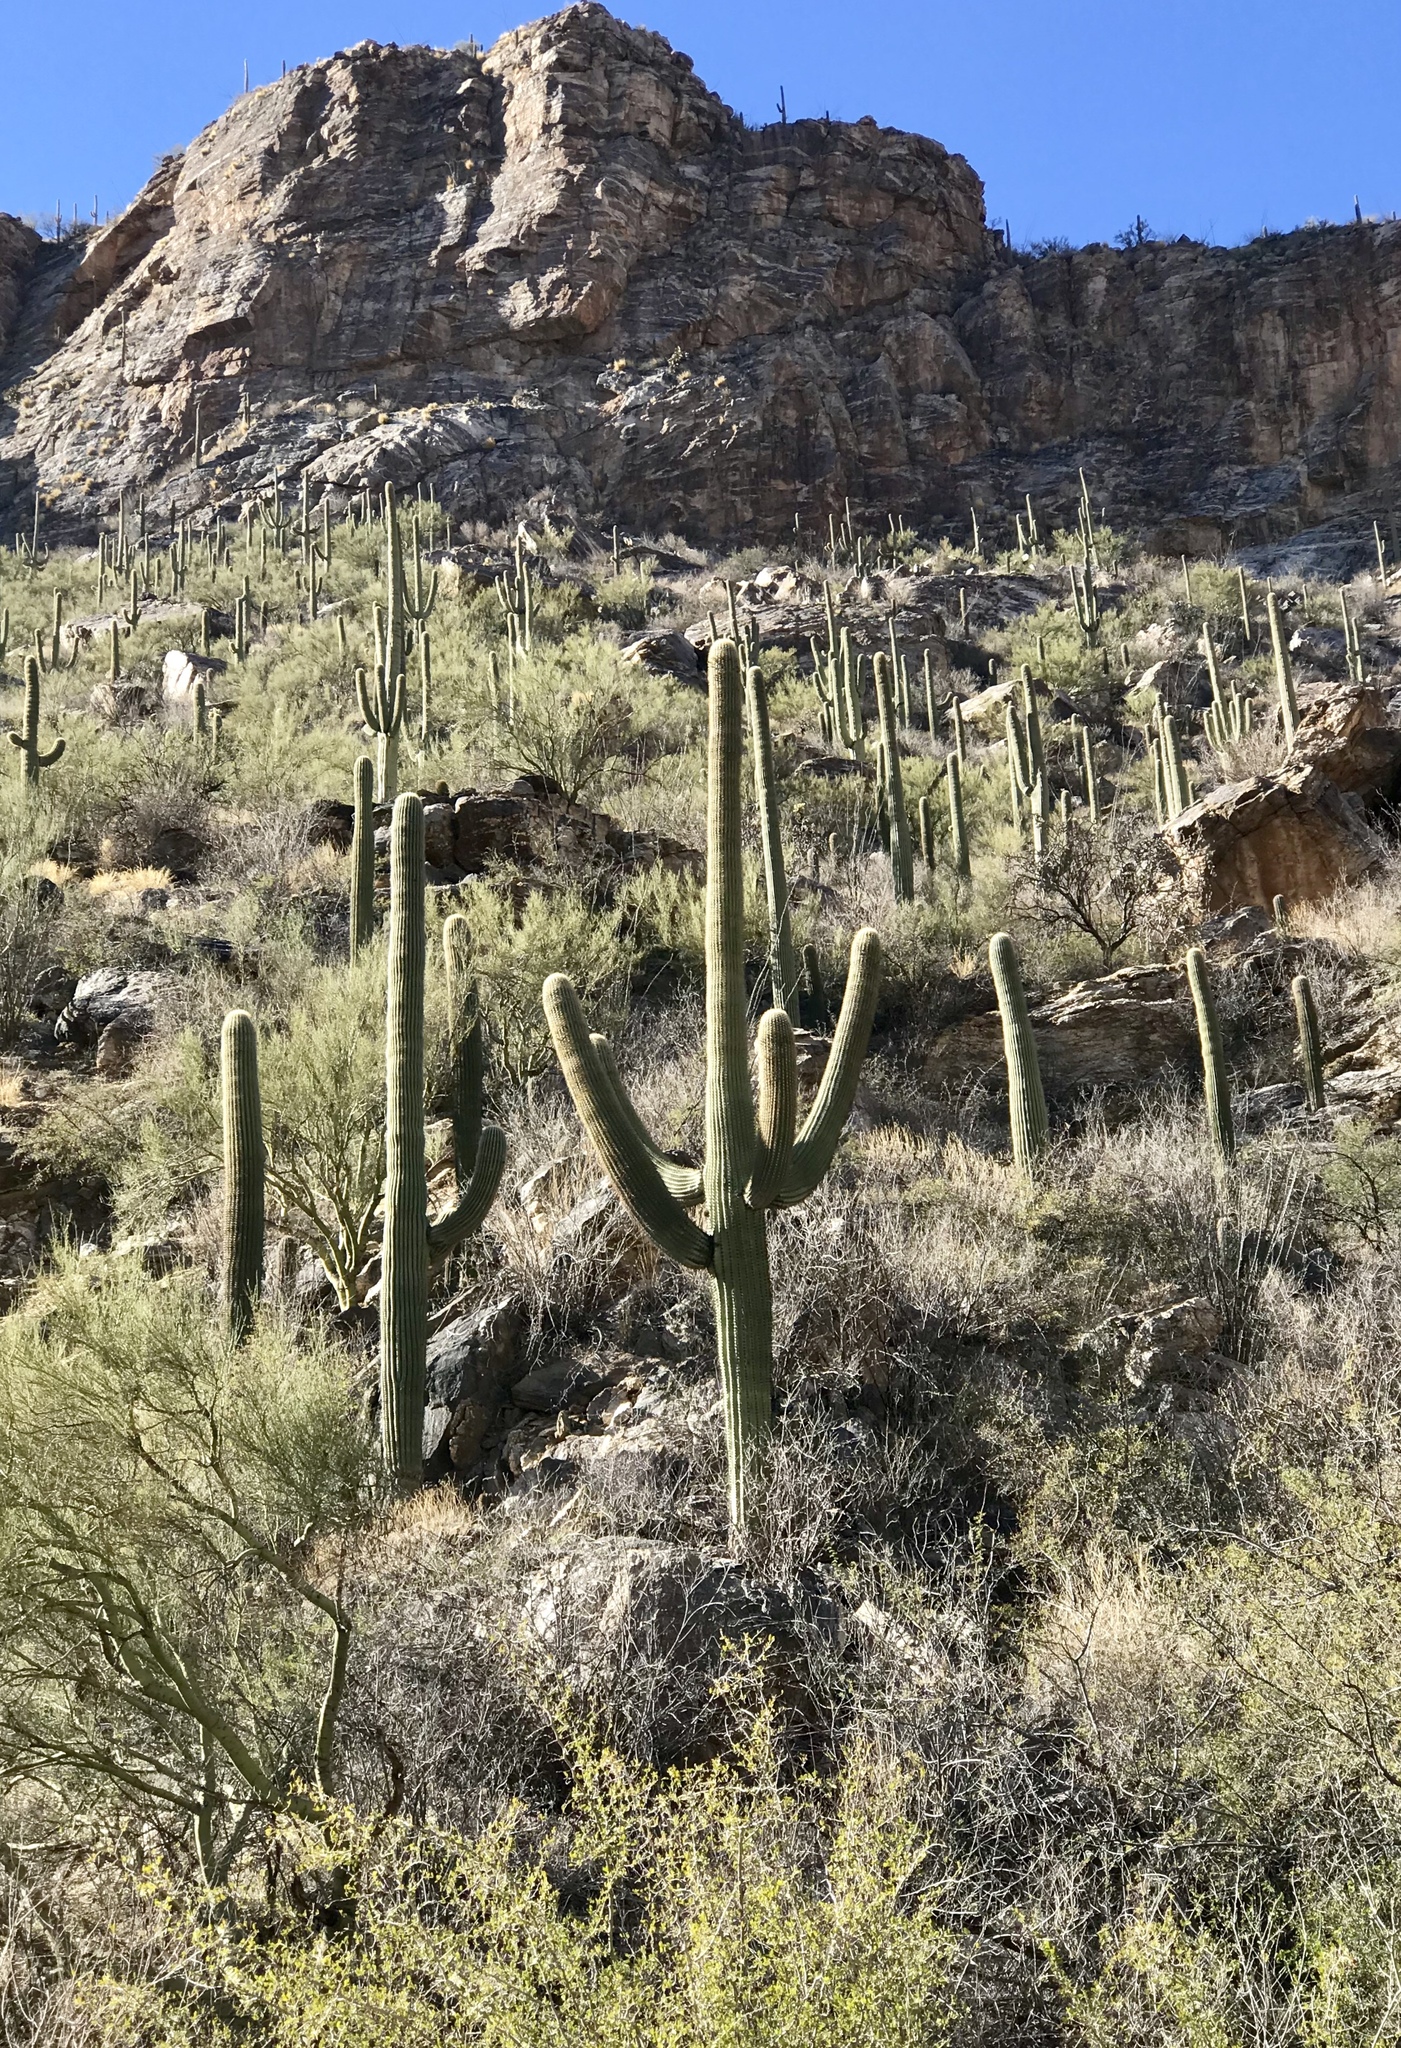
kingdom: Plantae
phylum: Tracheophyta
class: Magnoliopsida
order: Caryophyllales
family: Cactaceae
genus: Carnegiea
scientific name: Carnegiea gigantea
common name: Saguaro
